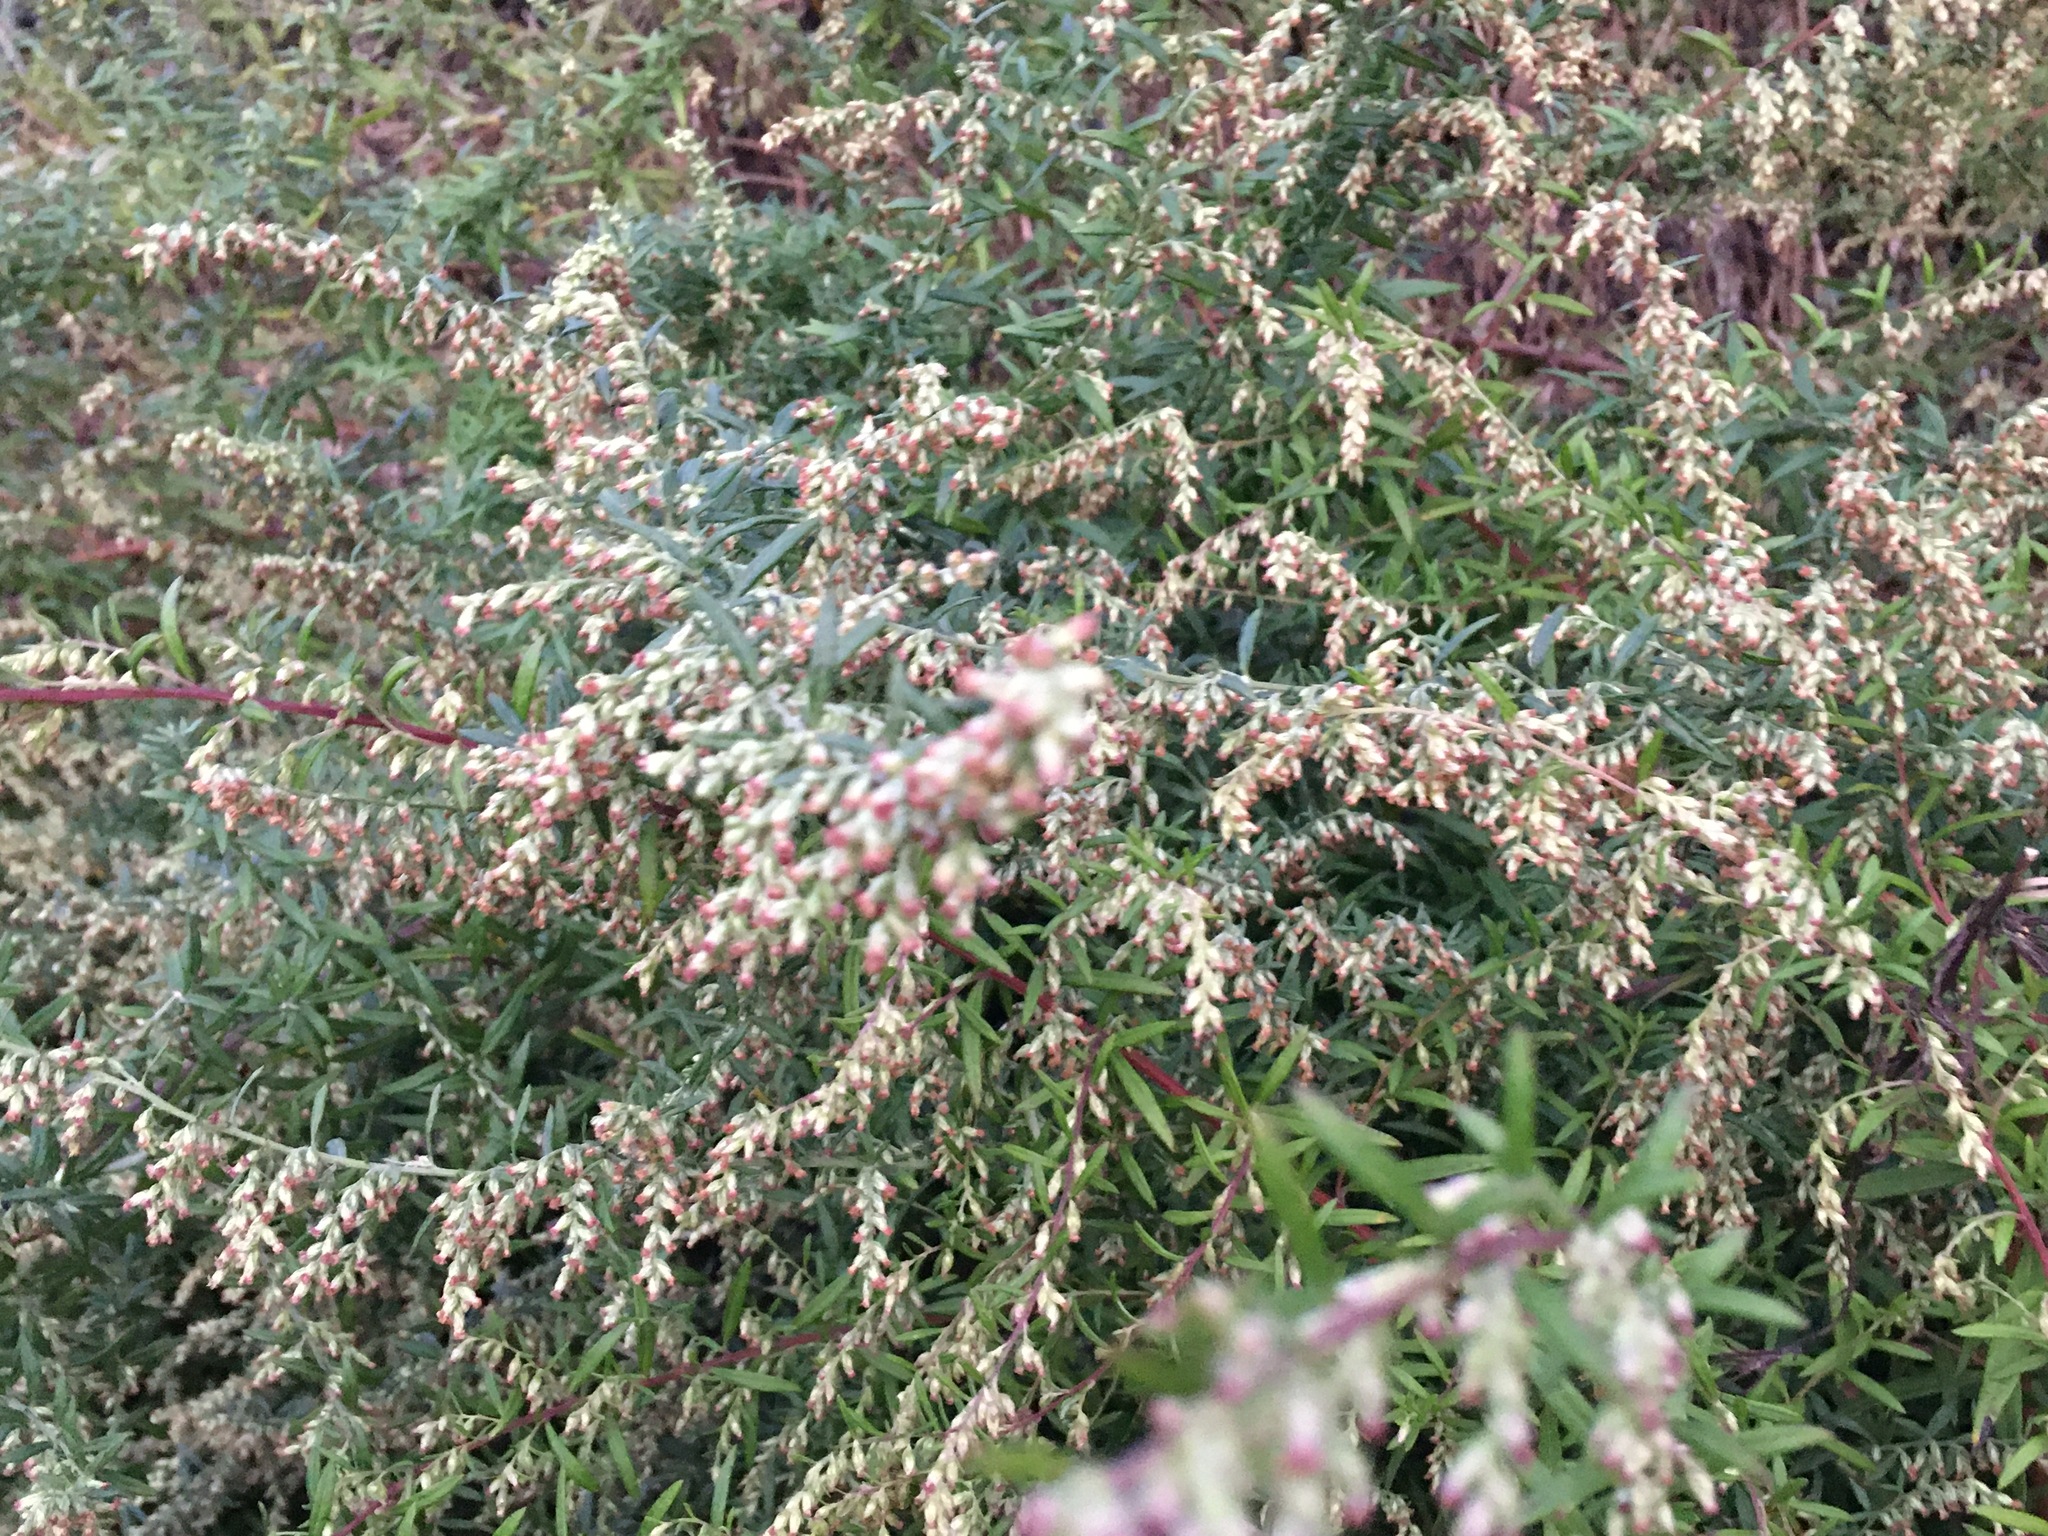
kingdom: Plantae
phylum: Tracheophyta
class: Magnoliopsida
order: Asterales
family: Asteraceae
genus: Artemisia
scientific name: Artemisia vulgaris
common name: Mugwort
